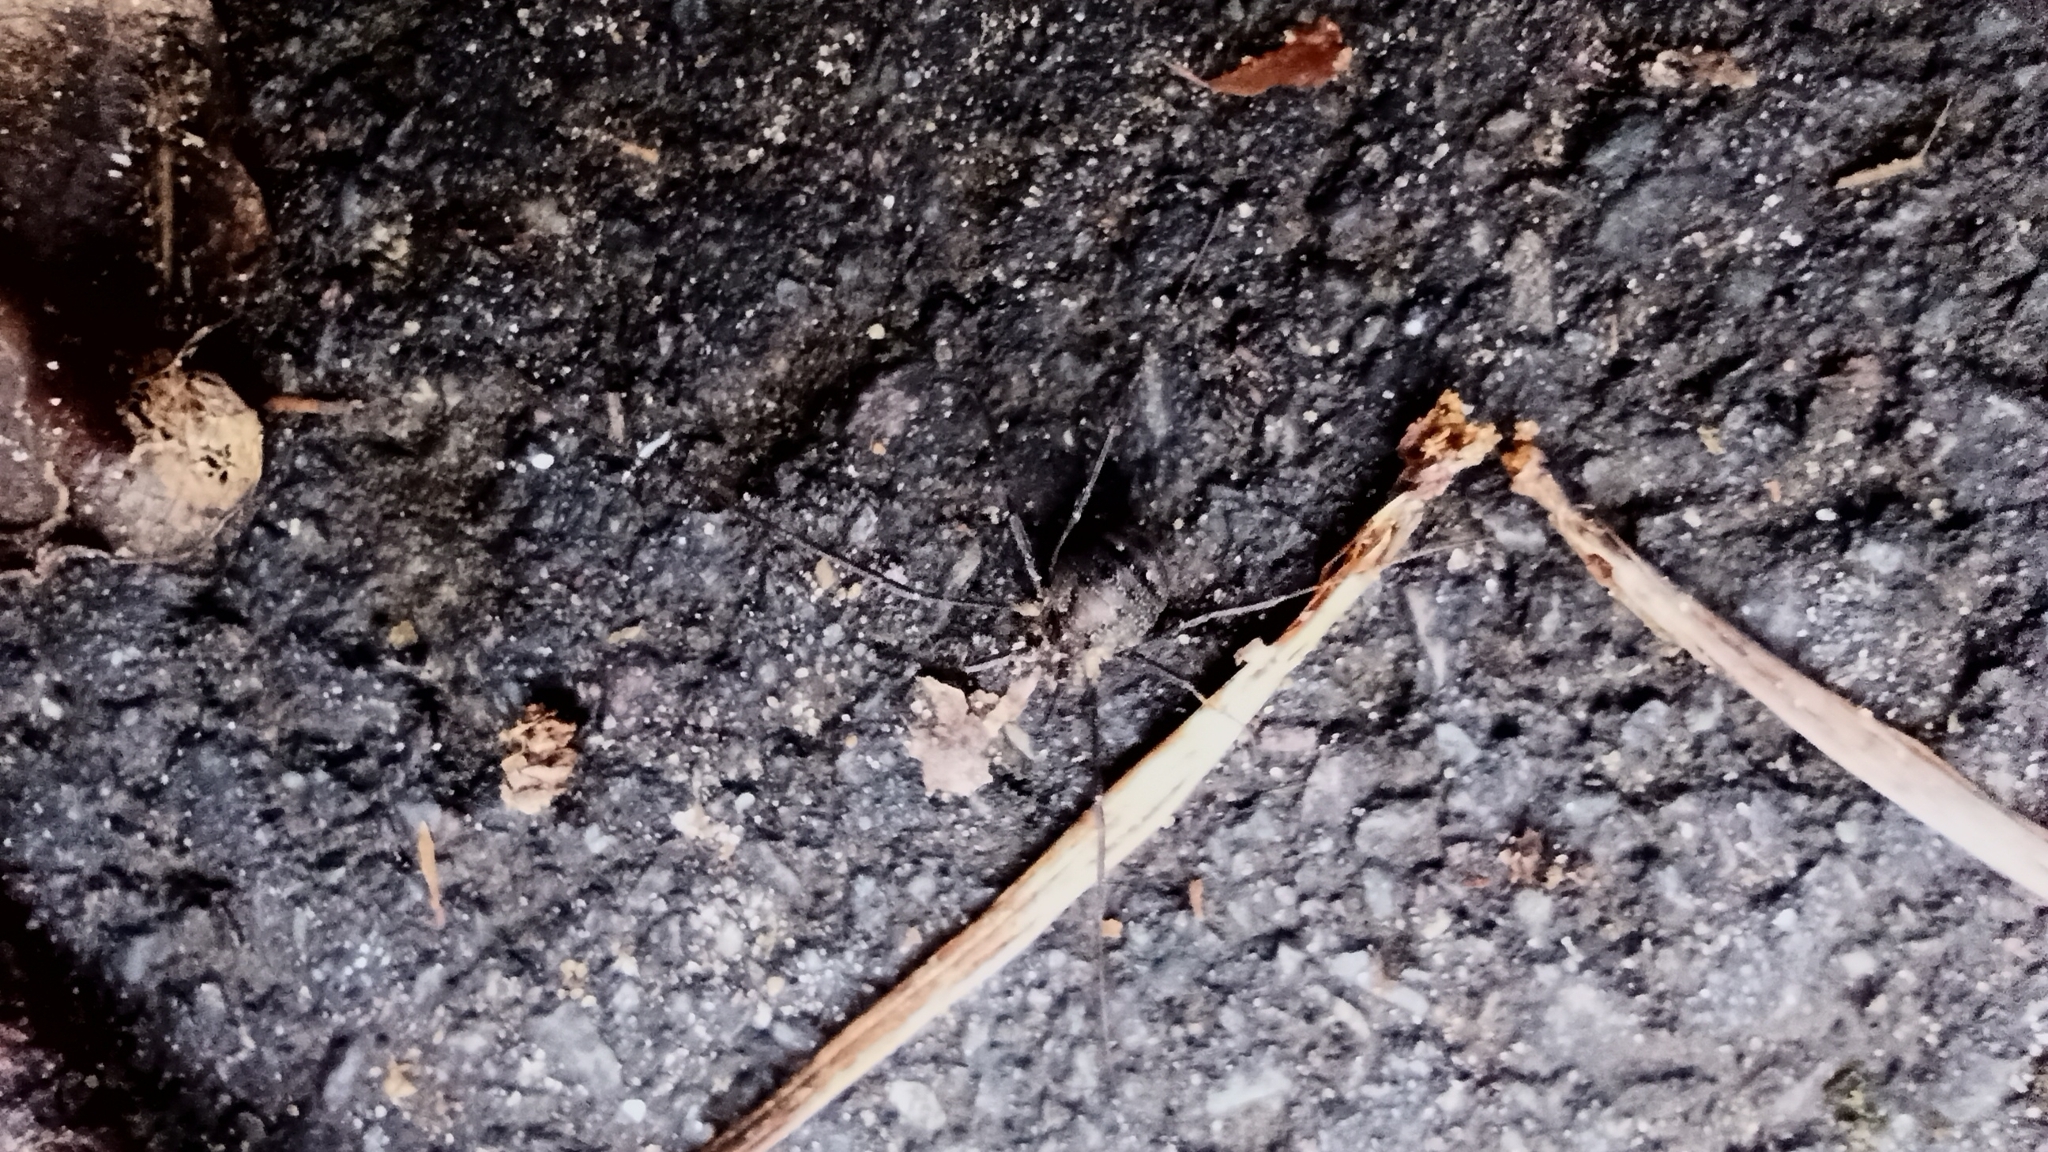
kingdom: Animalia
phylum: Arthropoda
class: Arachnida
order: Opiliones
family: Phalangiidae
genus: Oligolophus
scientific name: Oligolophus hansenii
